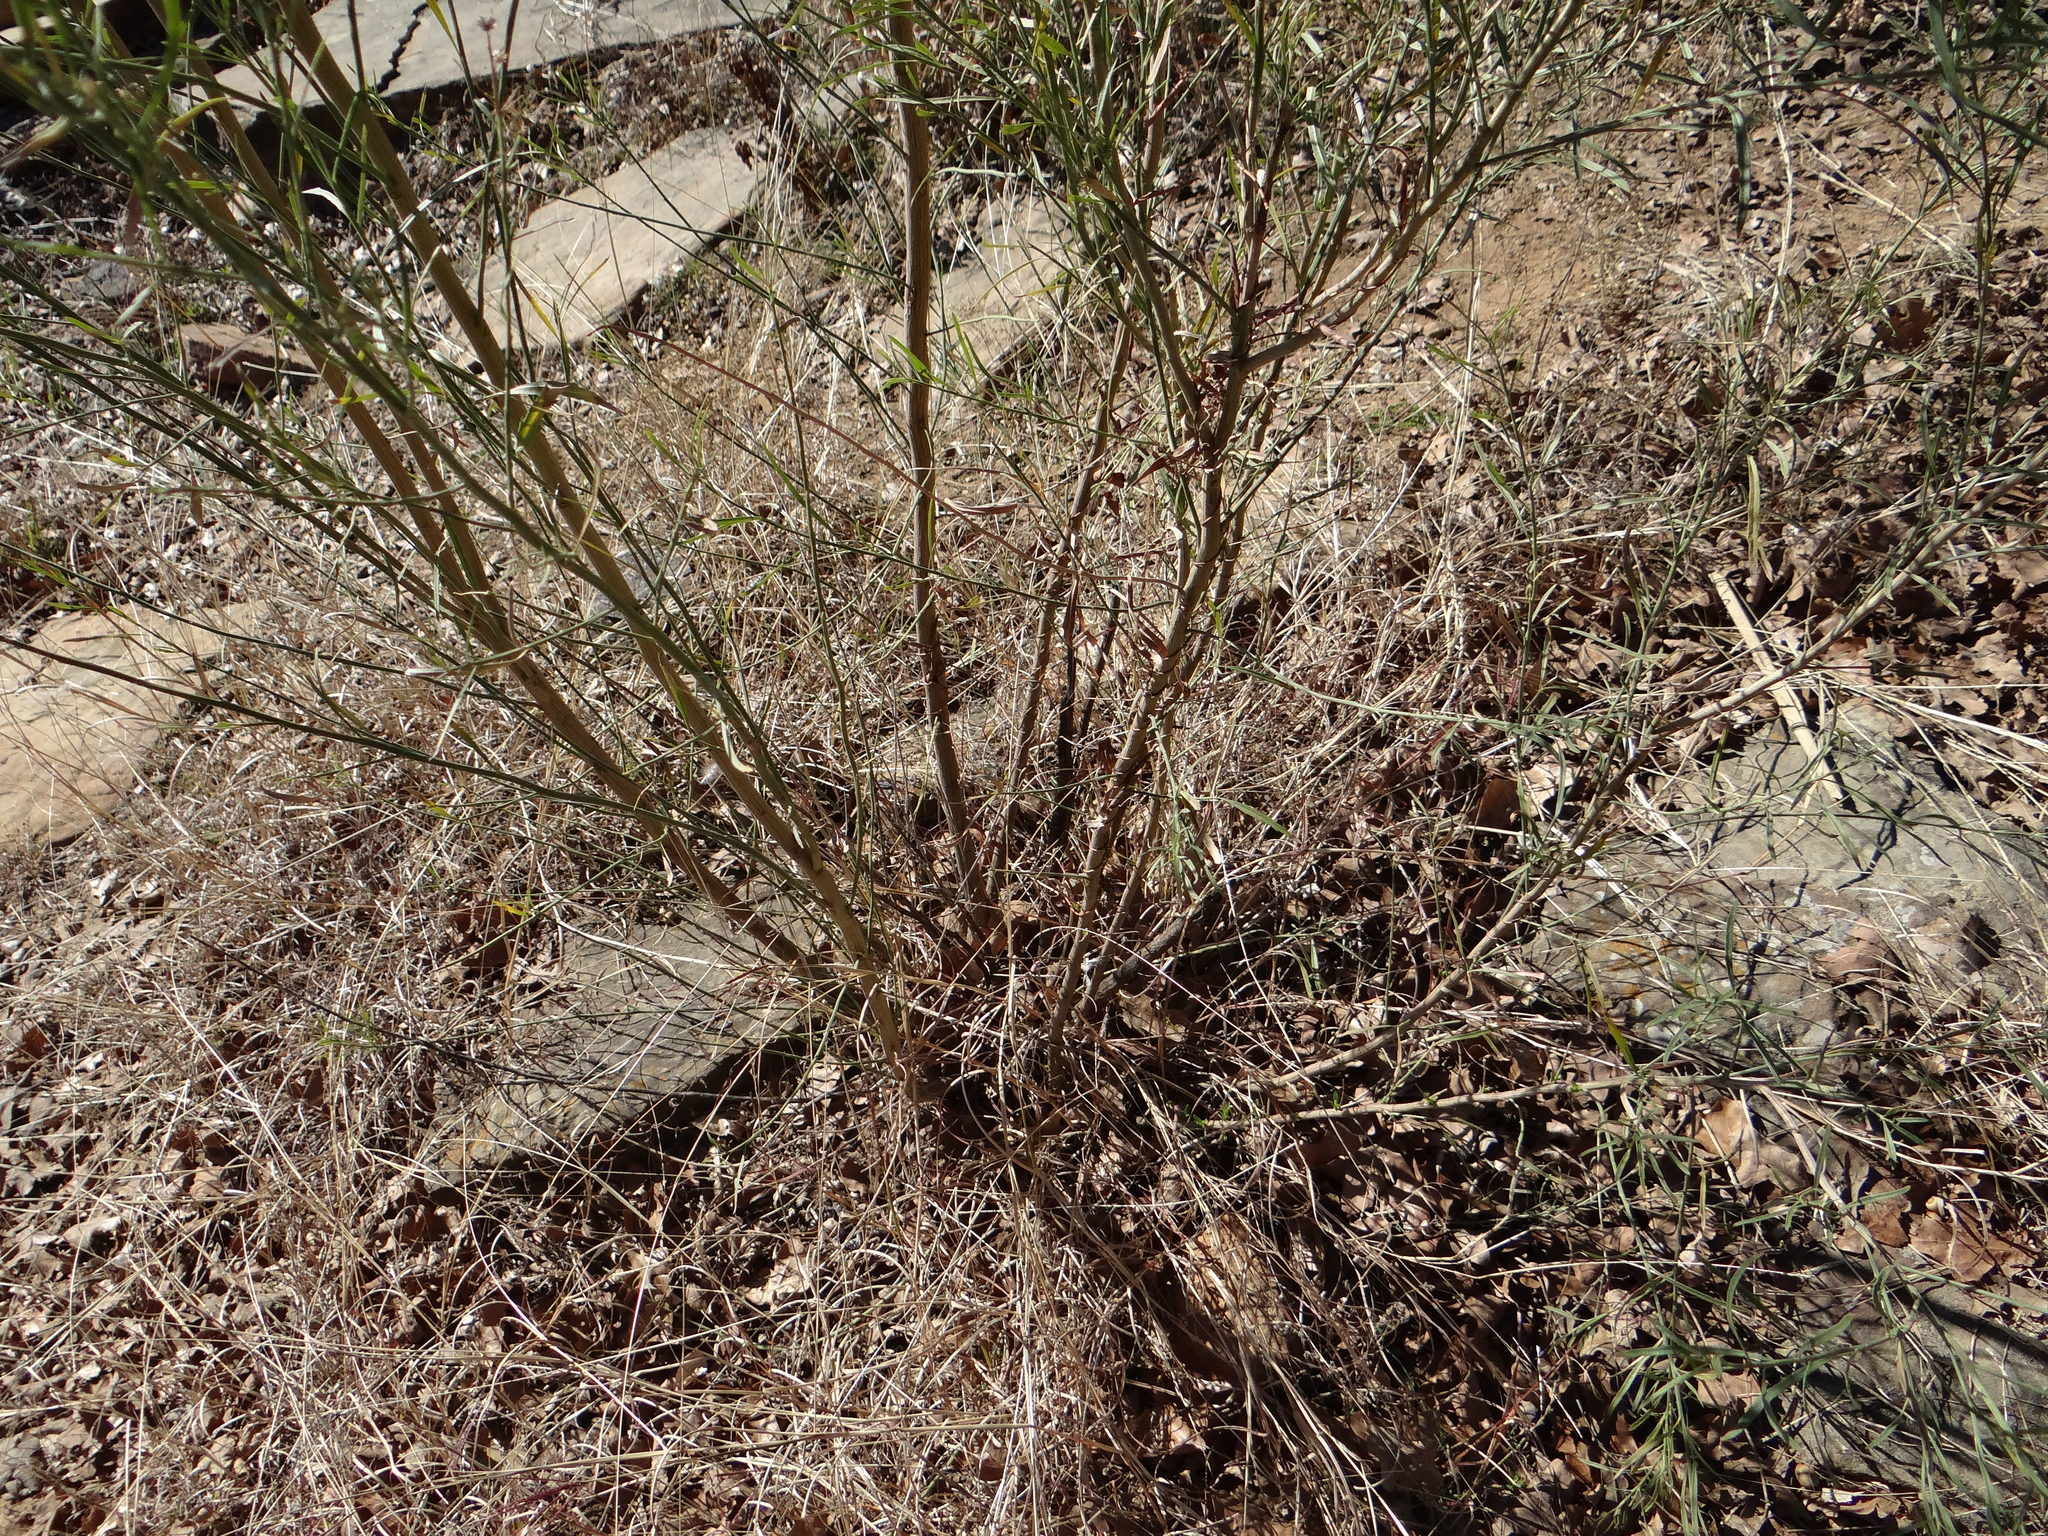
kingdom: Plantae
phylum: Tracheophyta
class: Magnoliopsida
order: Asterales
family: Asteraceae
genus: Baccharis
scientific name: Baccharis neglecta
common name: Roosevelt-weed
